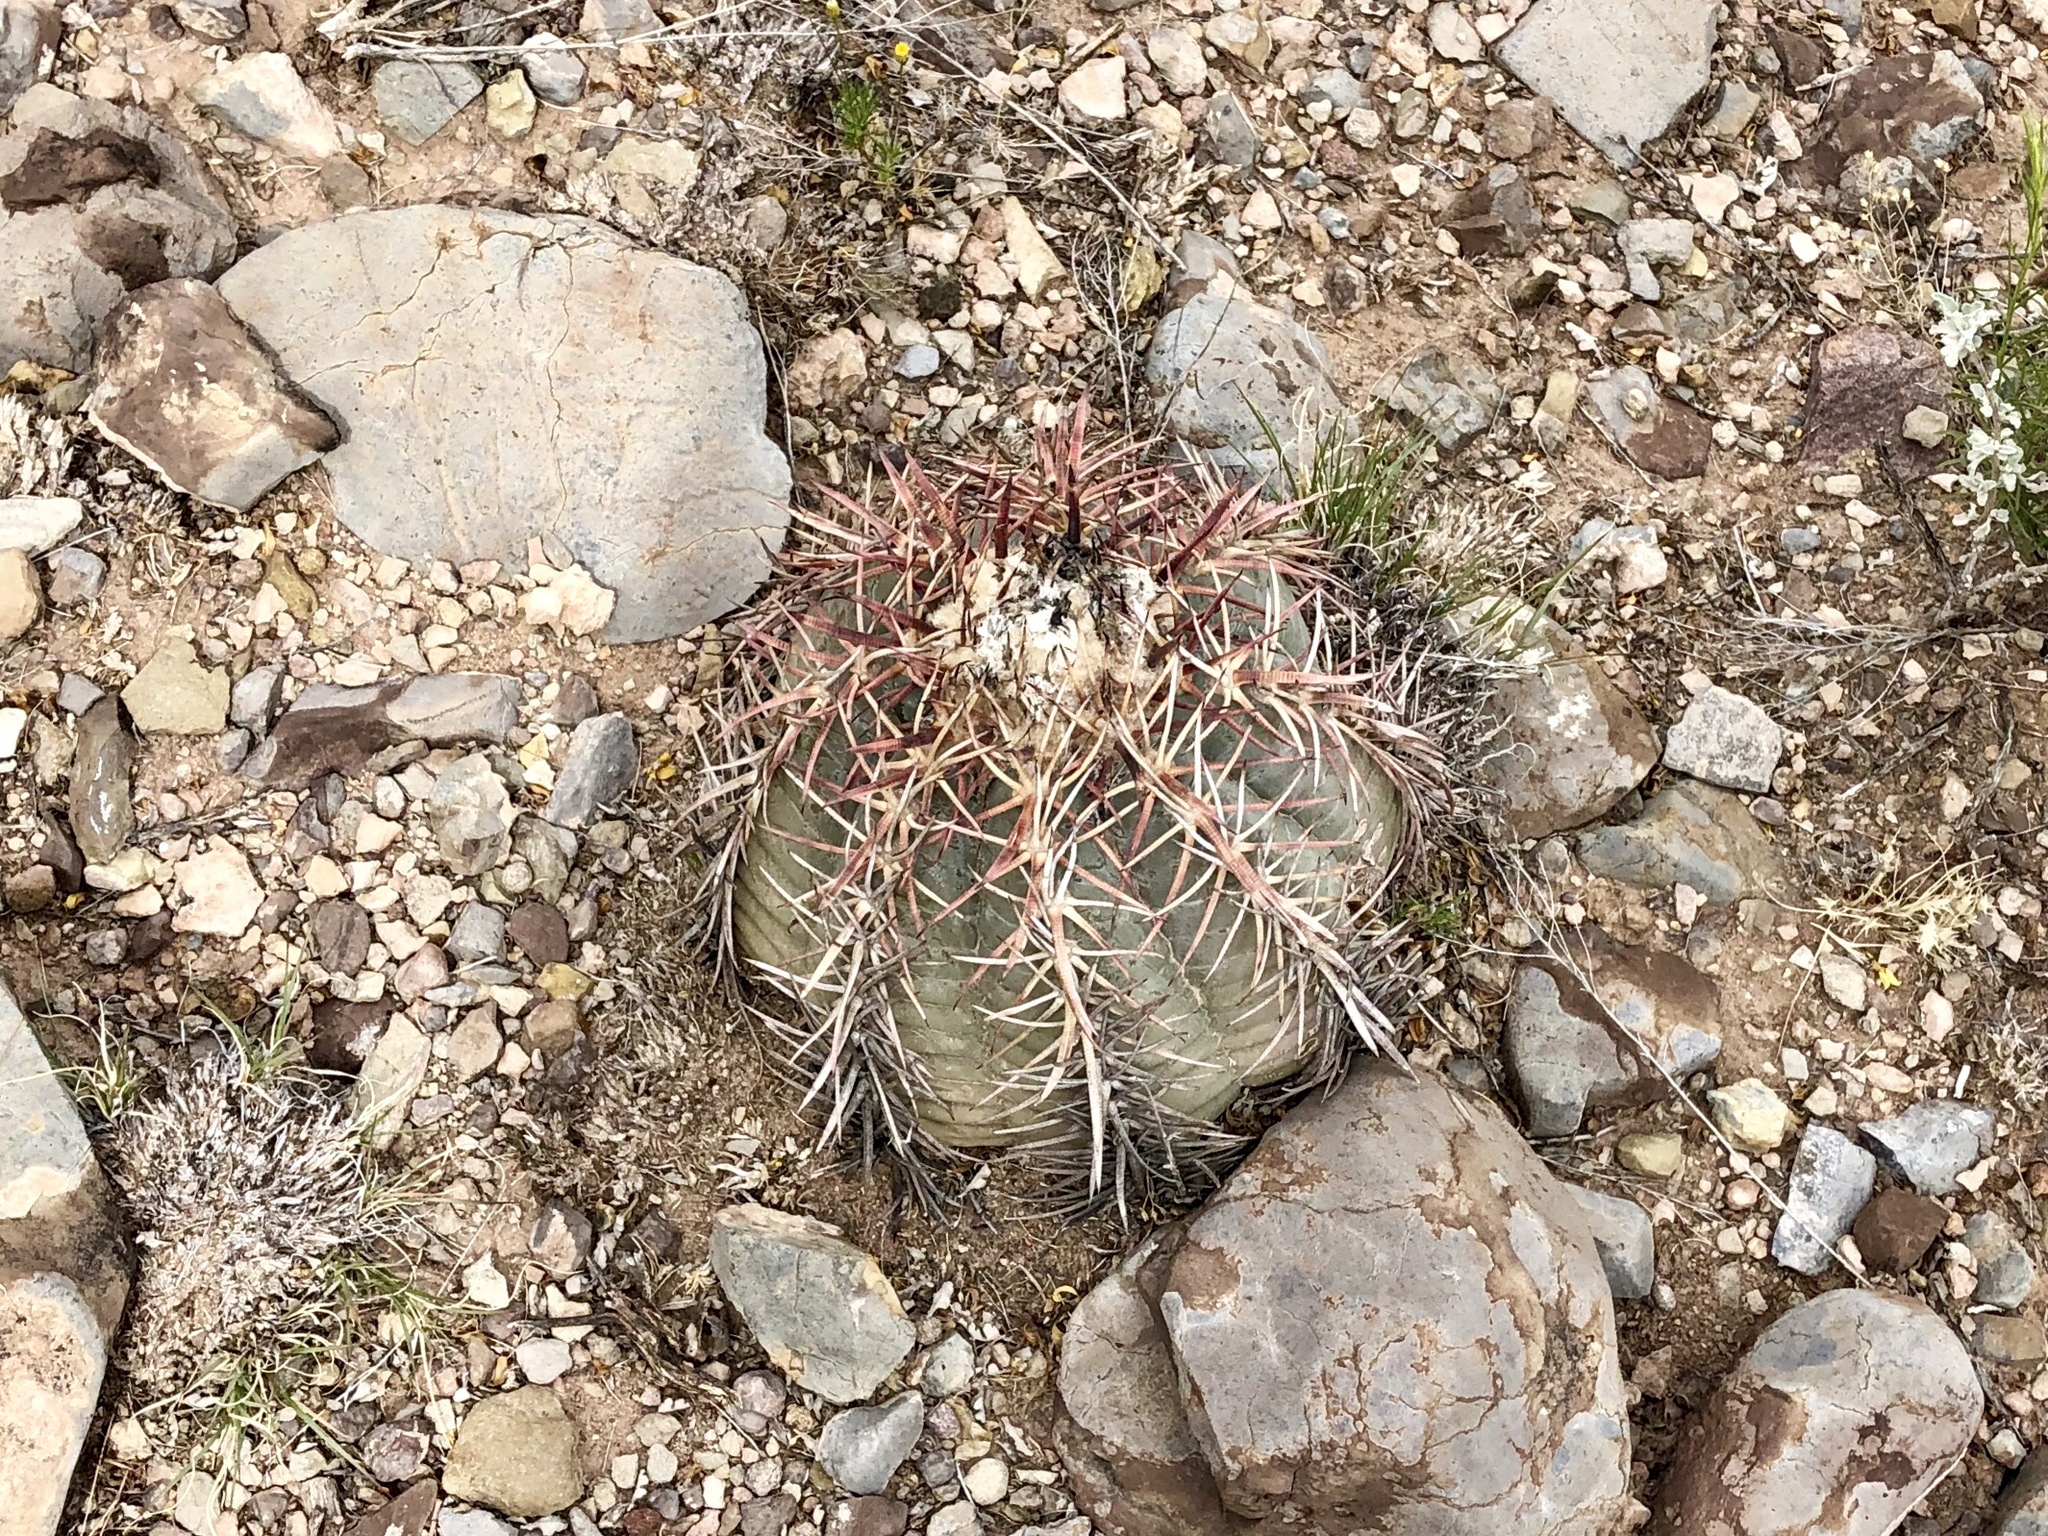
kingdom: Plantae
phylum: Tracheophyta
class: Magnoliopsida
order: Caryophyllales
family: Cactaceae
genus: Echinocactus
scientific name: Echinocactus horizonthalonius
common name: Devilshead
